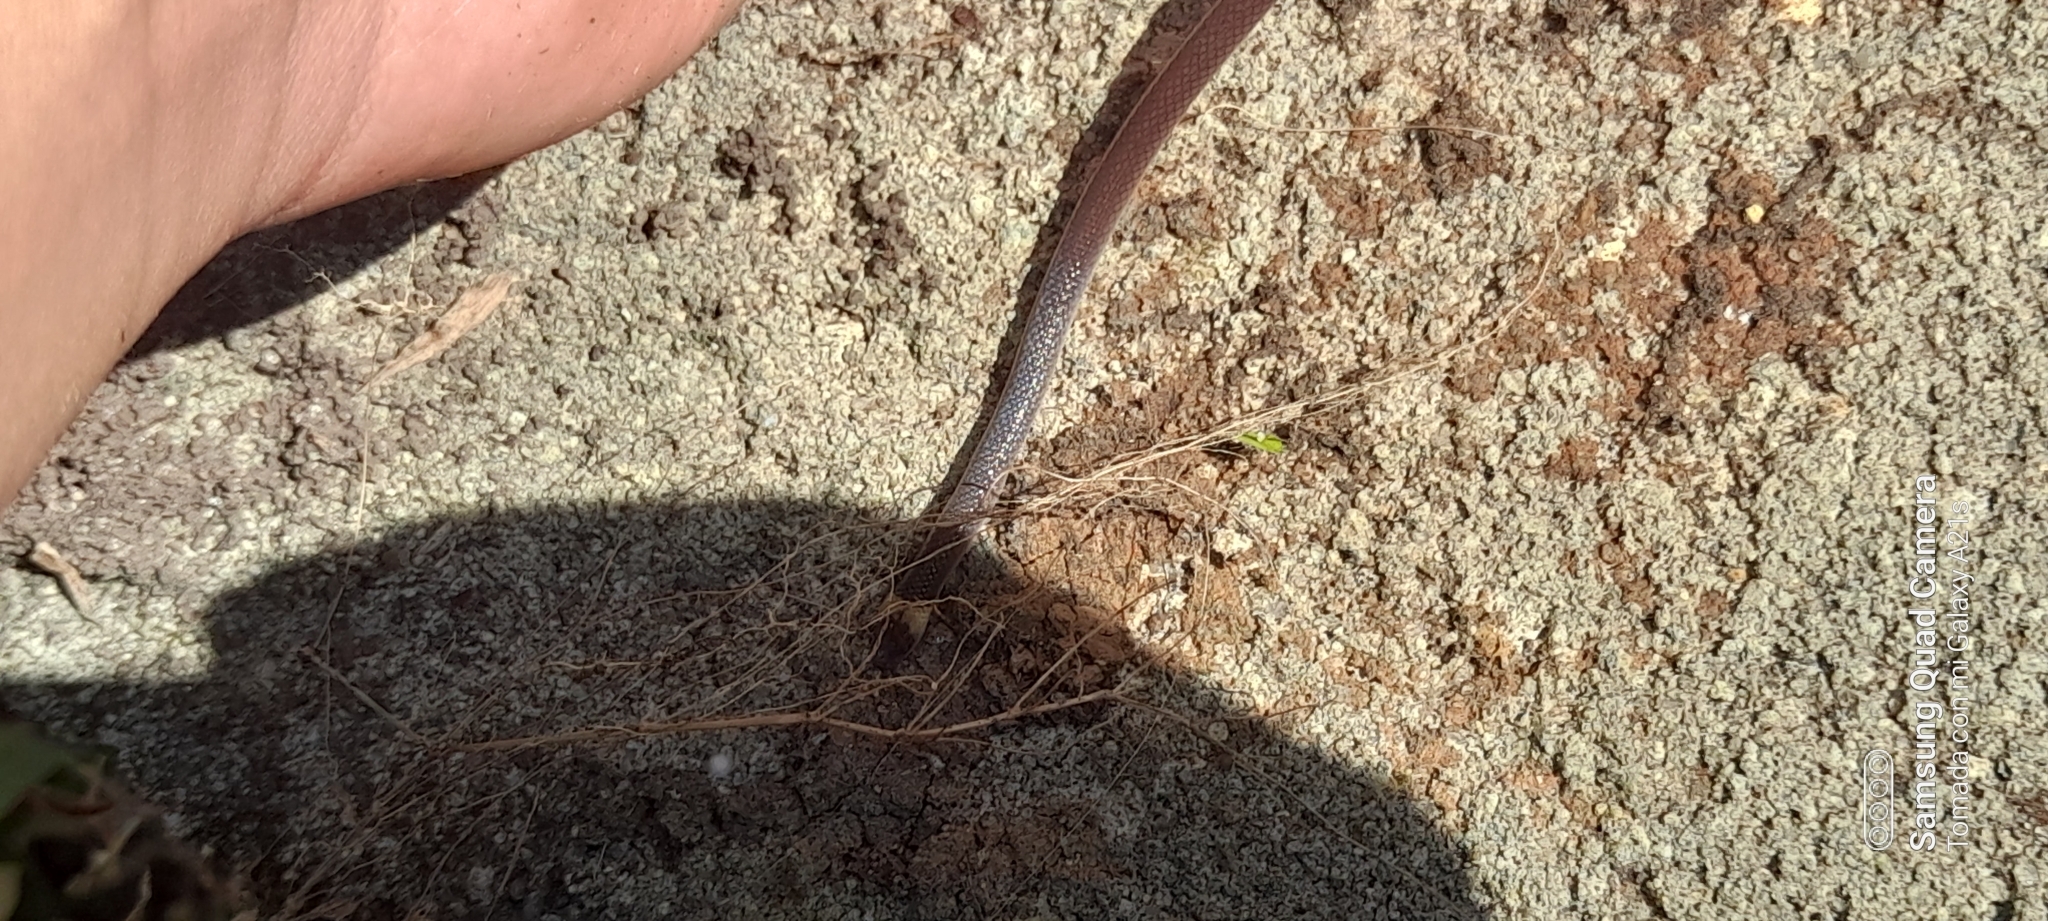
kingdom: Animalia
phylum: Chordata
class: Squamata
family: Colubridae
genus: Enulius
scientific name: Enulius flavitorques
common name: Pacific longtail snake
